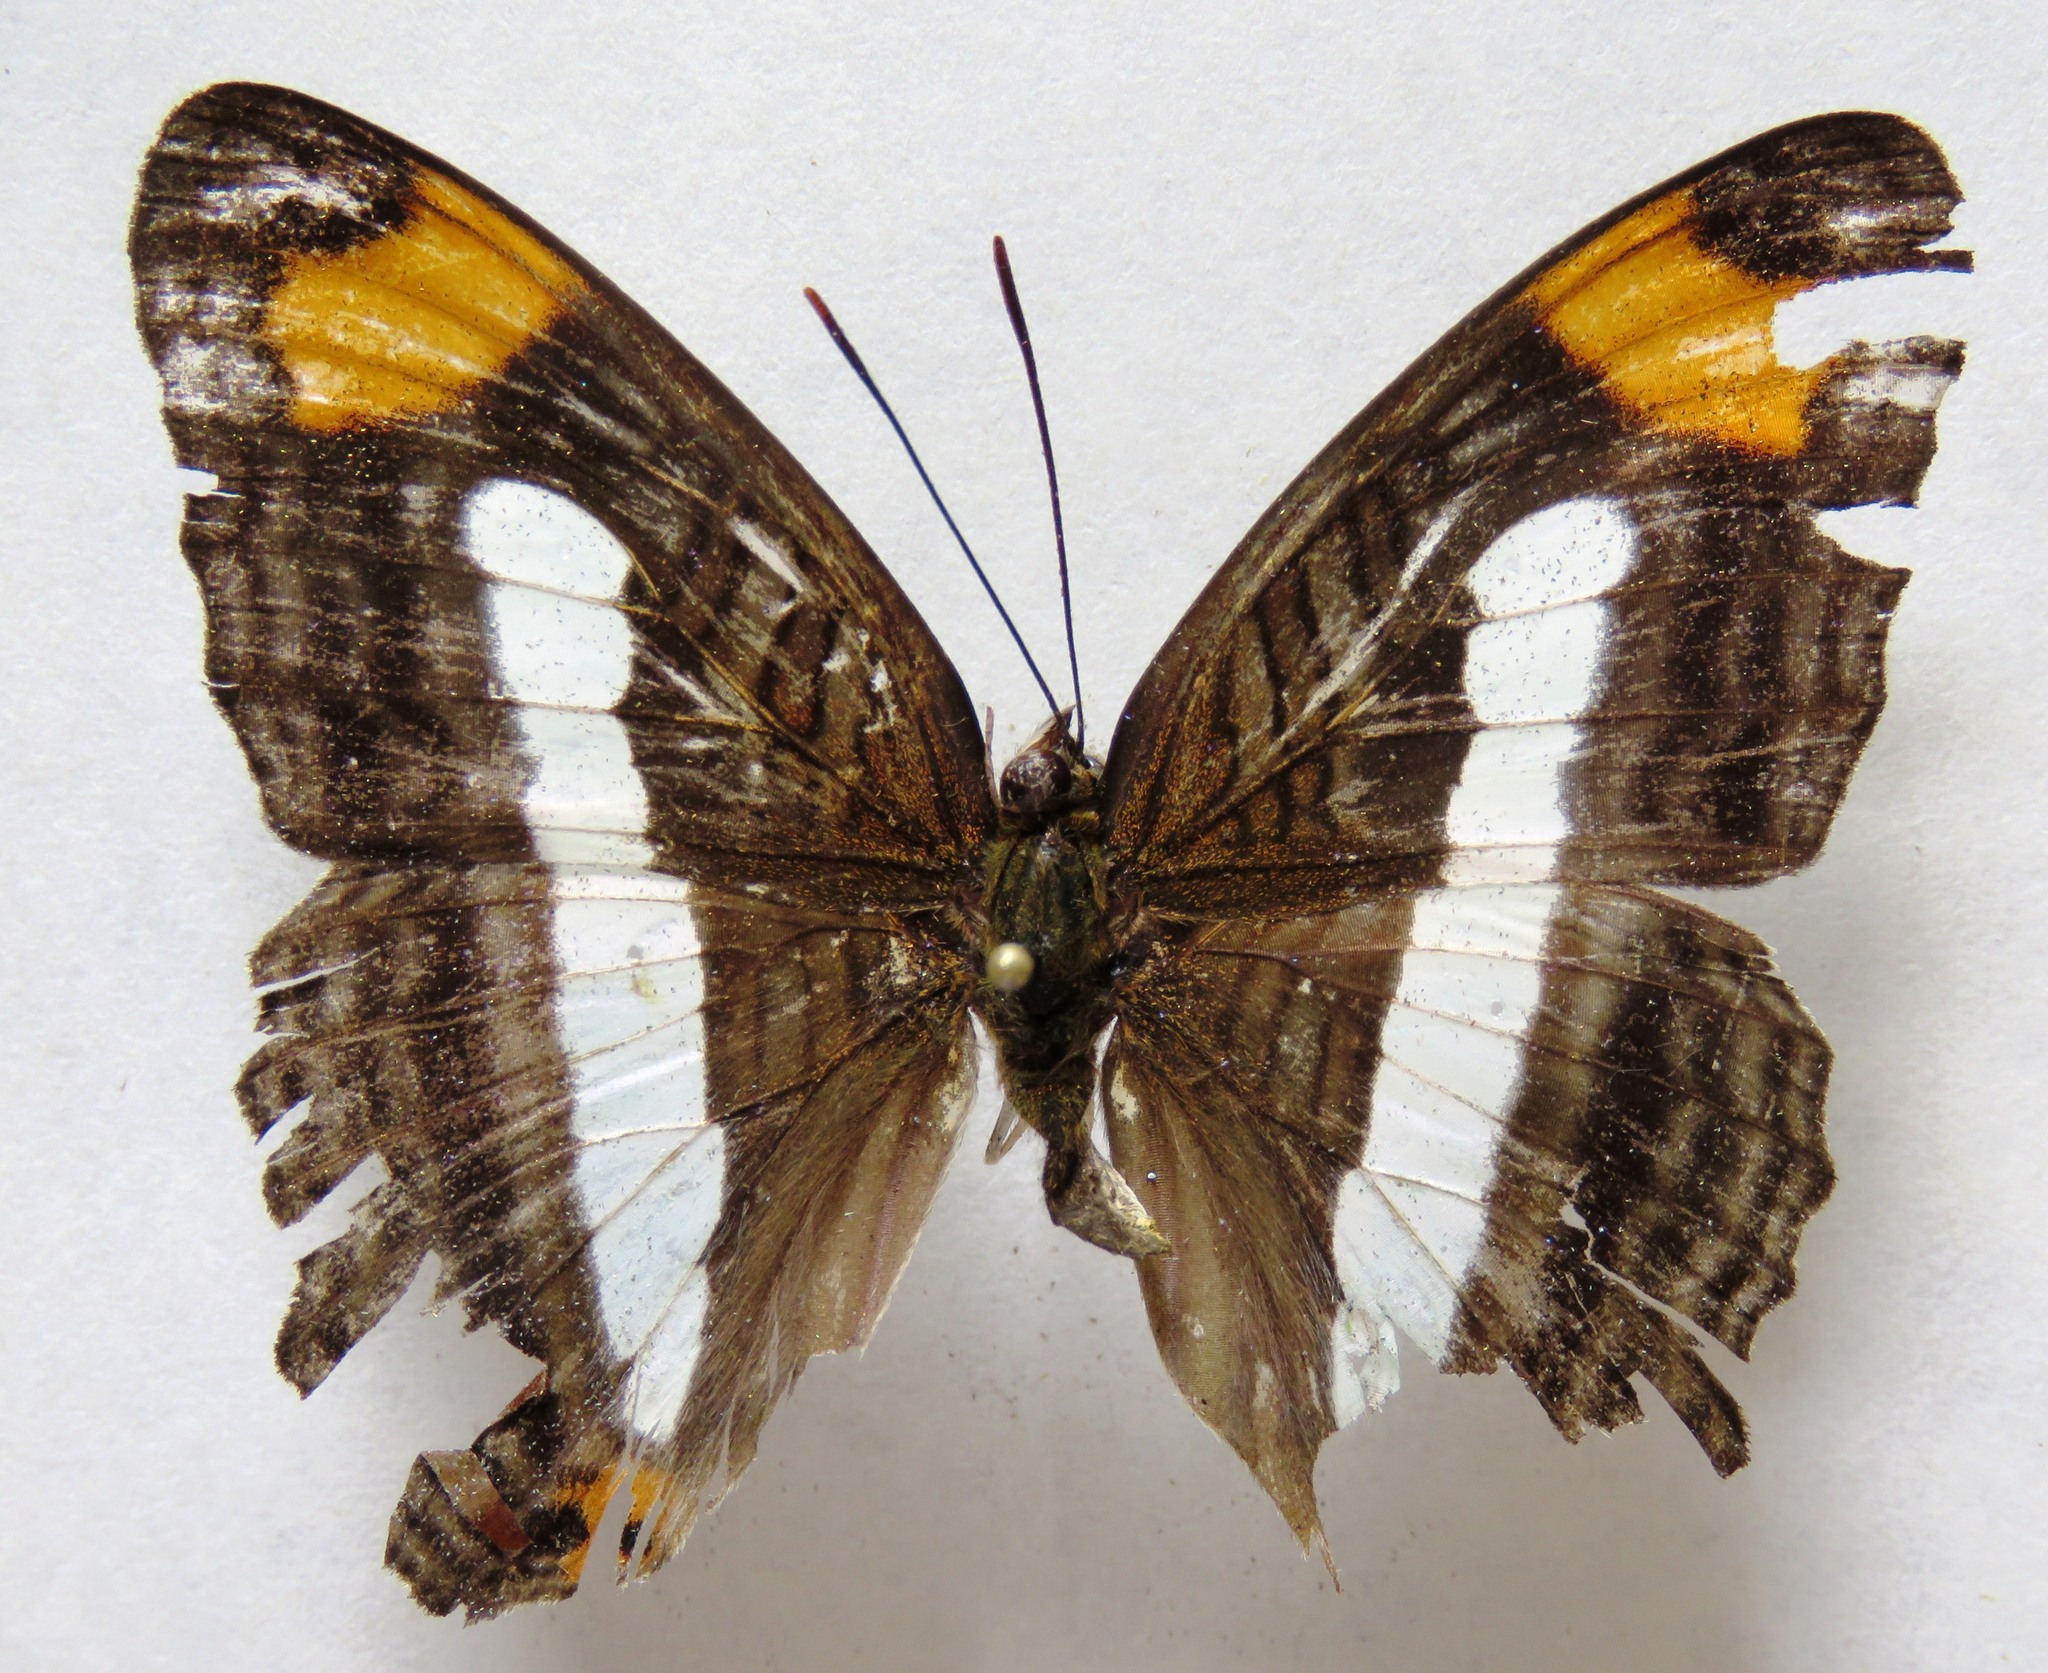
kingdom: Animalia
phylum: Arthropoda
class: Insecta
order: Lepidoptera
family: Nymphalidae
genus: Limenitis
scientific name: Limenitis iphiclus
